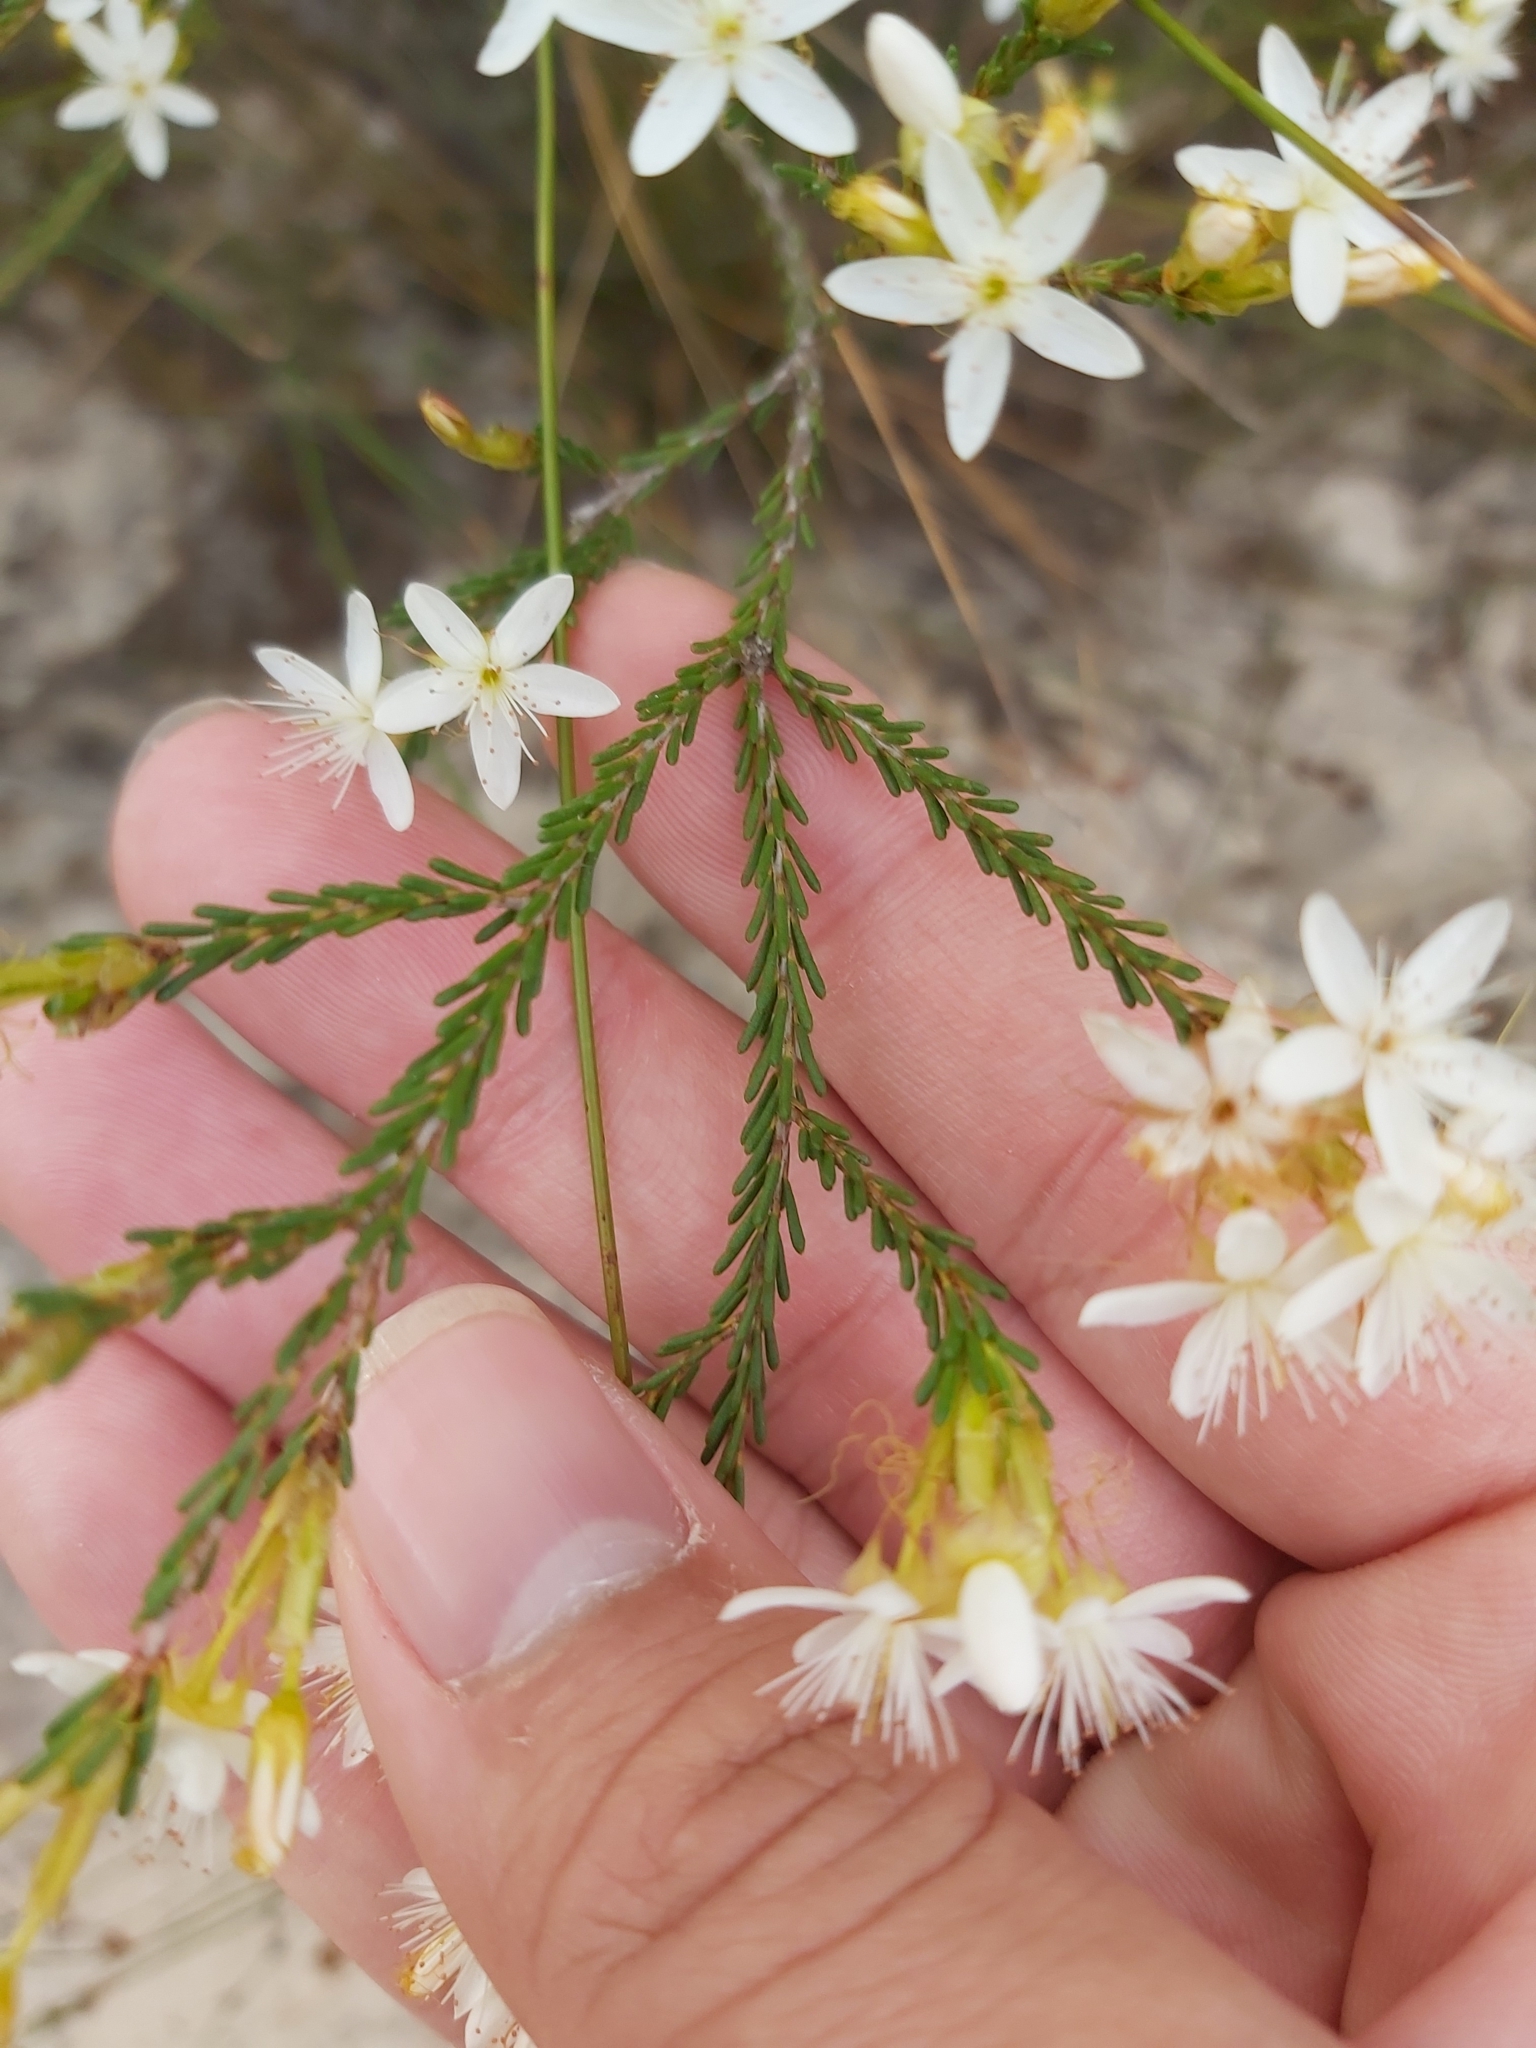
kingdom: Plantae
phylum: Tracheophyta
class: Magnoliopsida
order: Myrtales
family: Myrtaceae
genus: Calytrix
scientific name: Calytrix tetragona
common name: Common fringe myrtle
